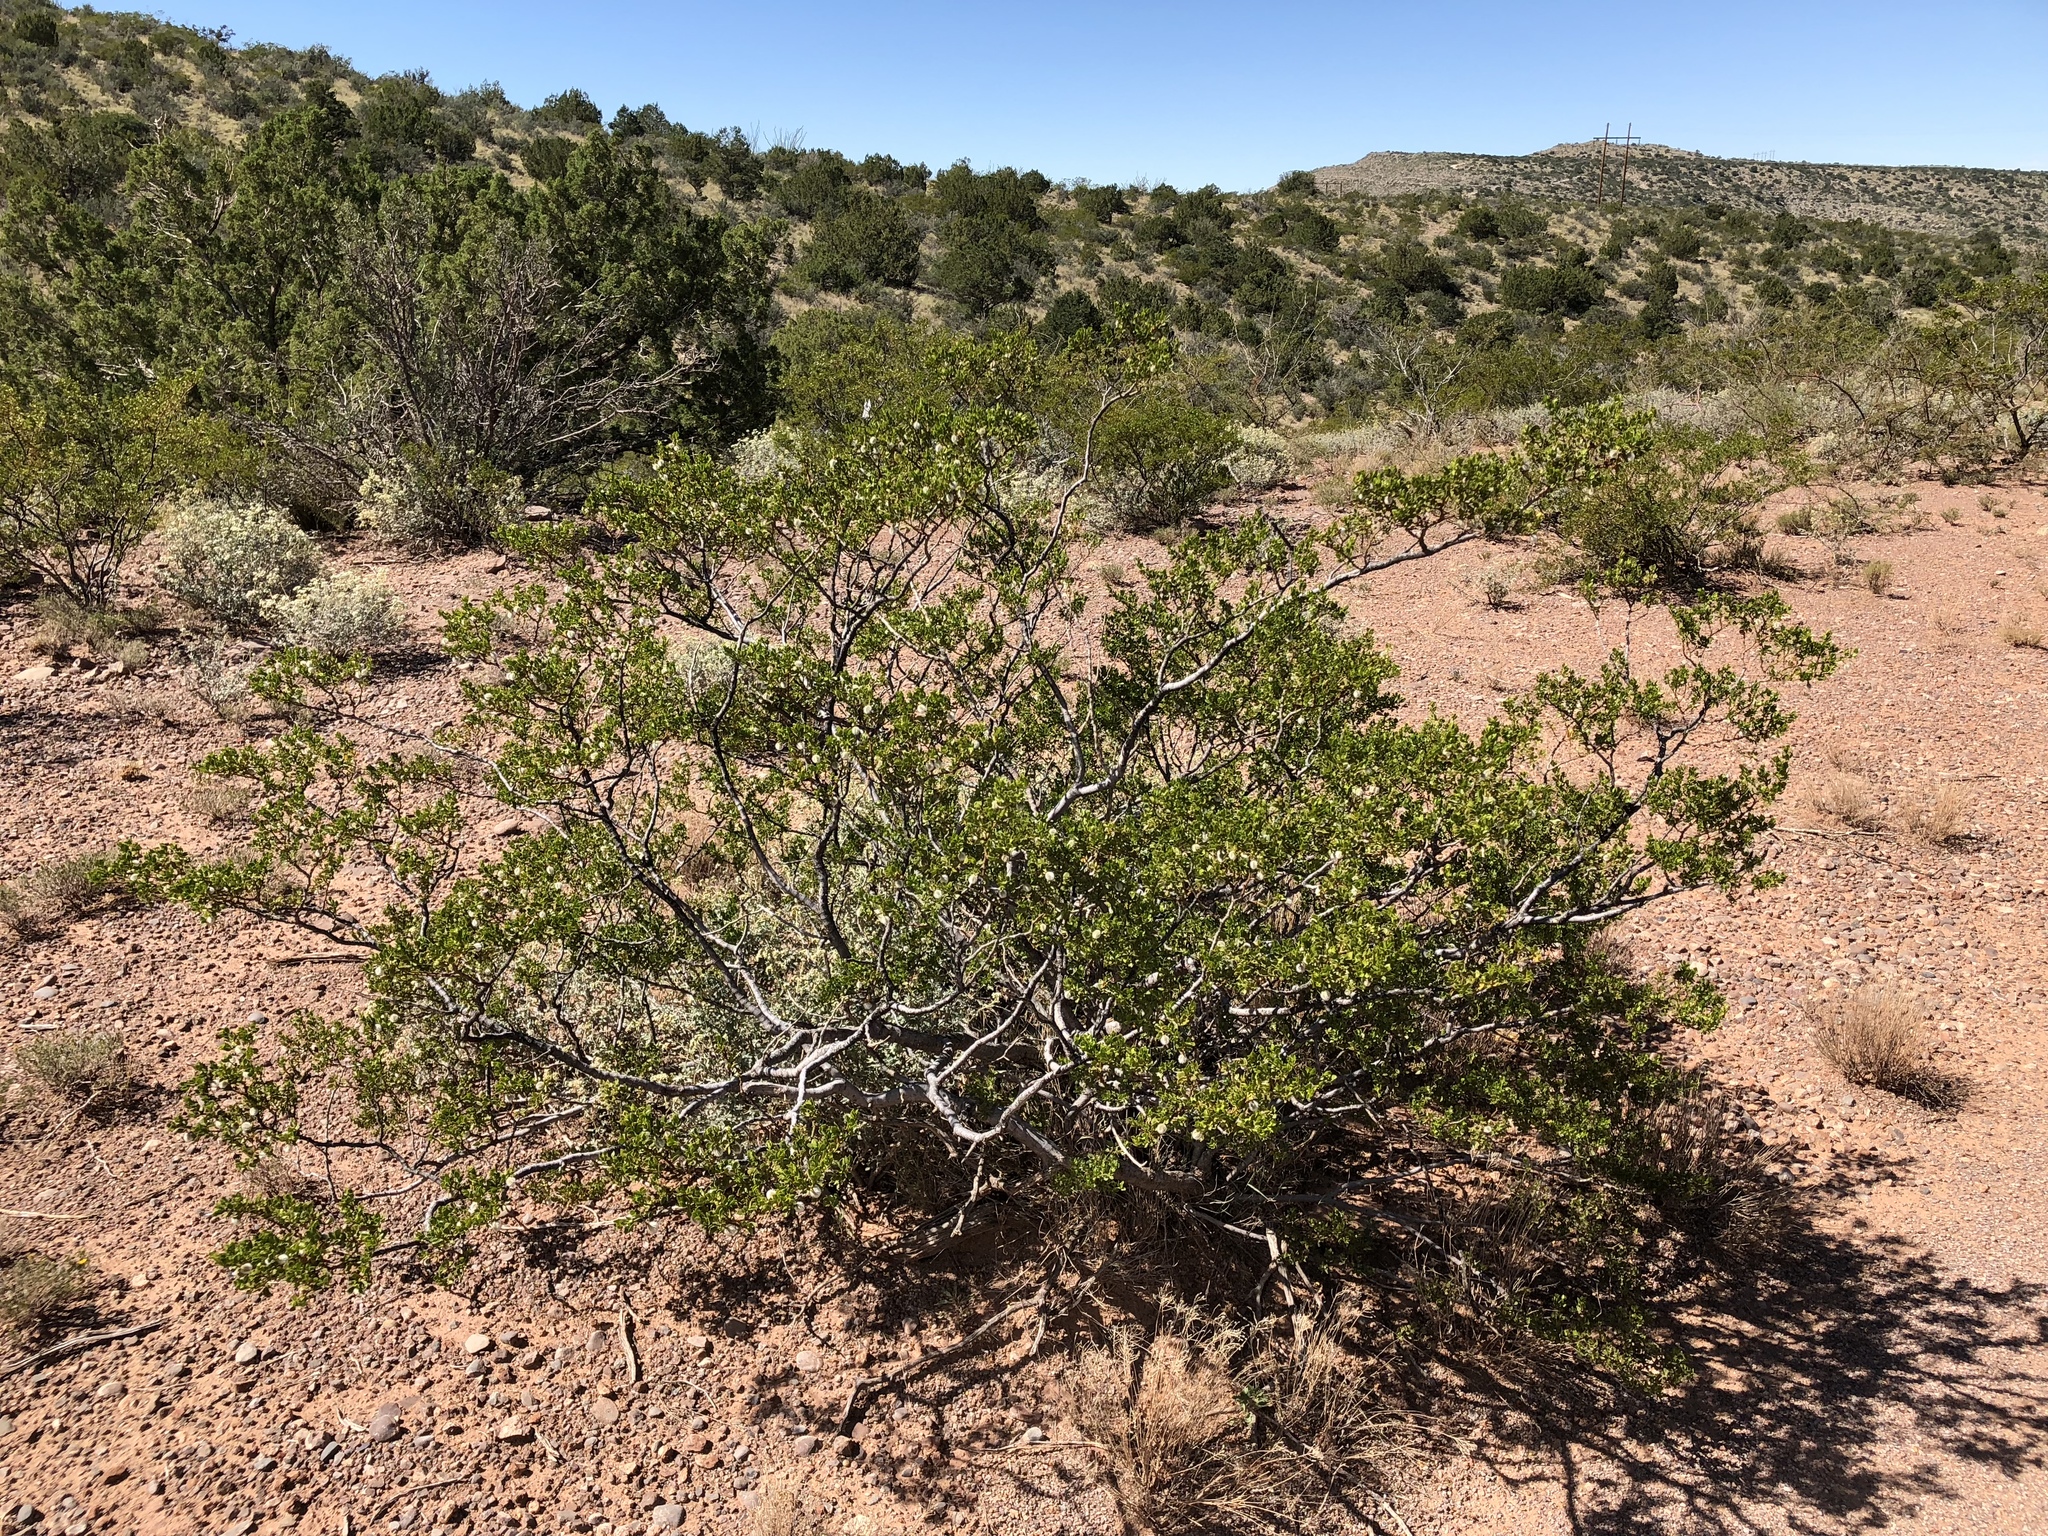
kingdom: Plantae
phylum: Tracheophyta
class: Magnoliopsida
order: Zygophyllales
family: Zygophyllaceae
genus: Larrea
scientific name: Larrea tridentata
